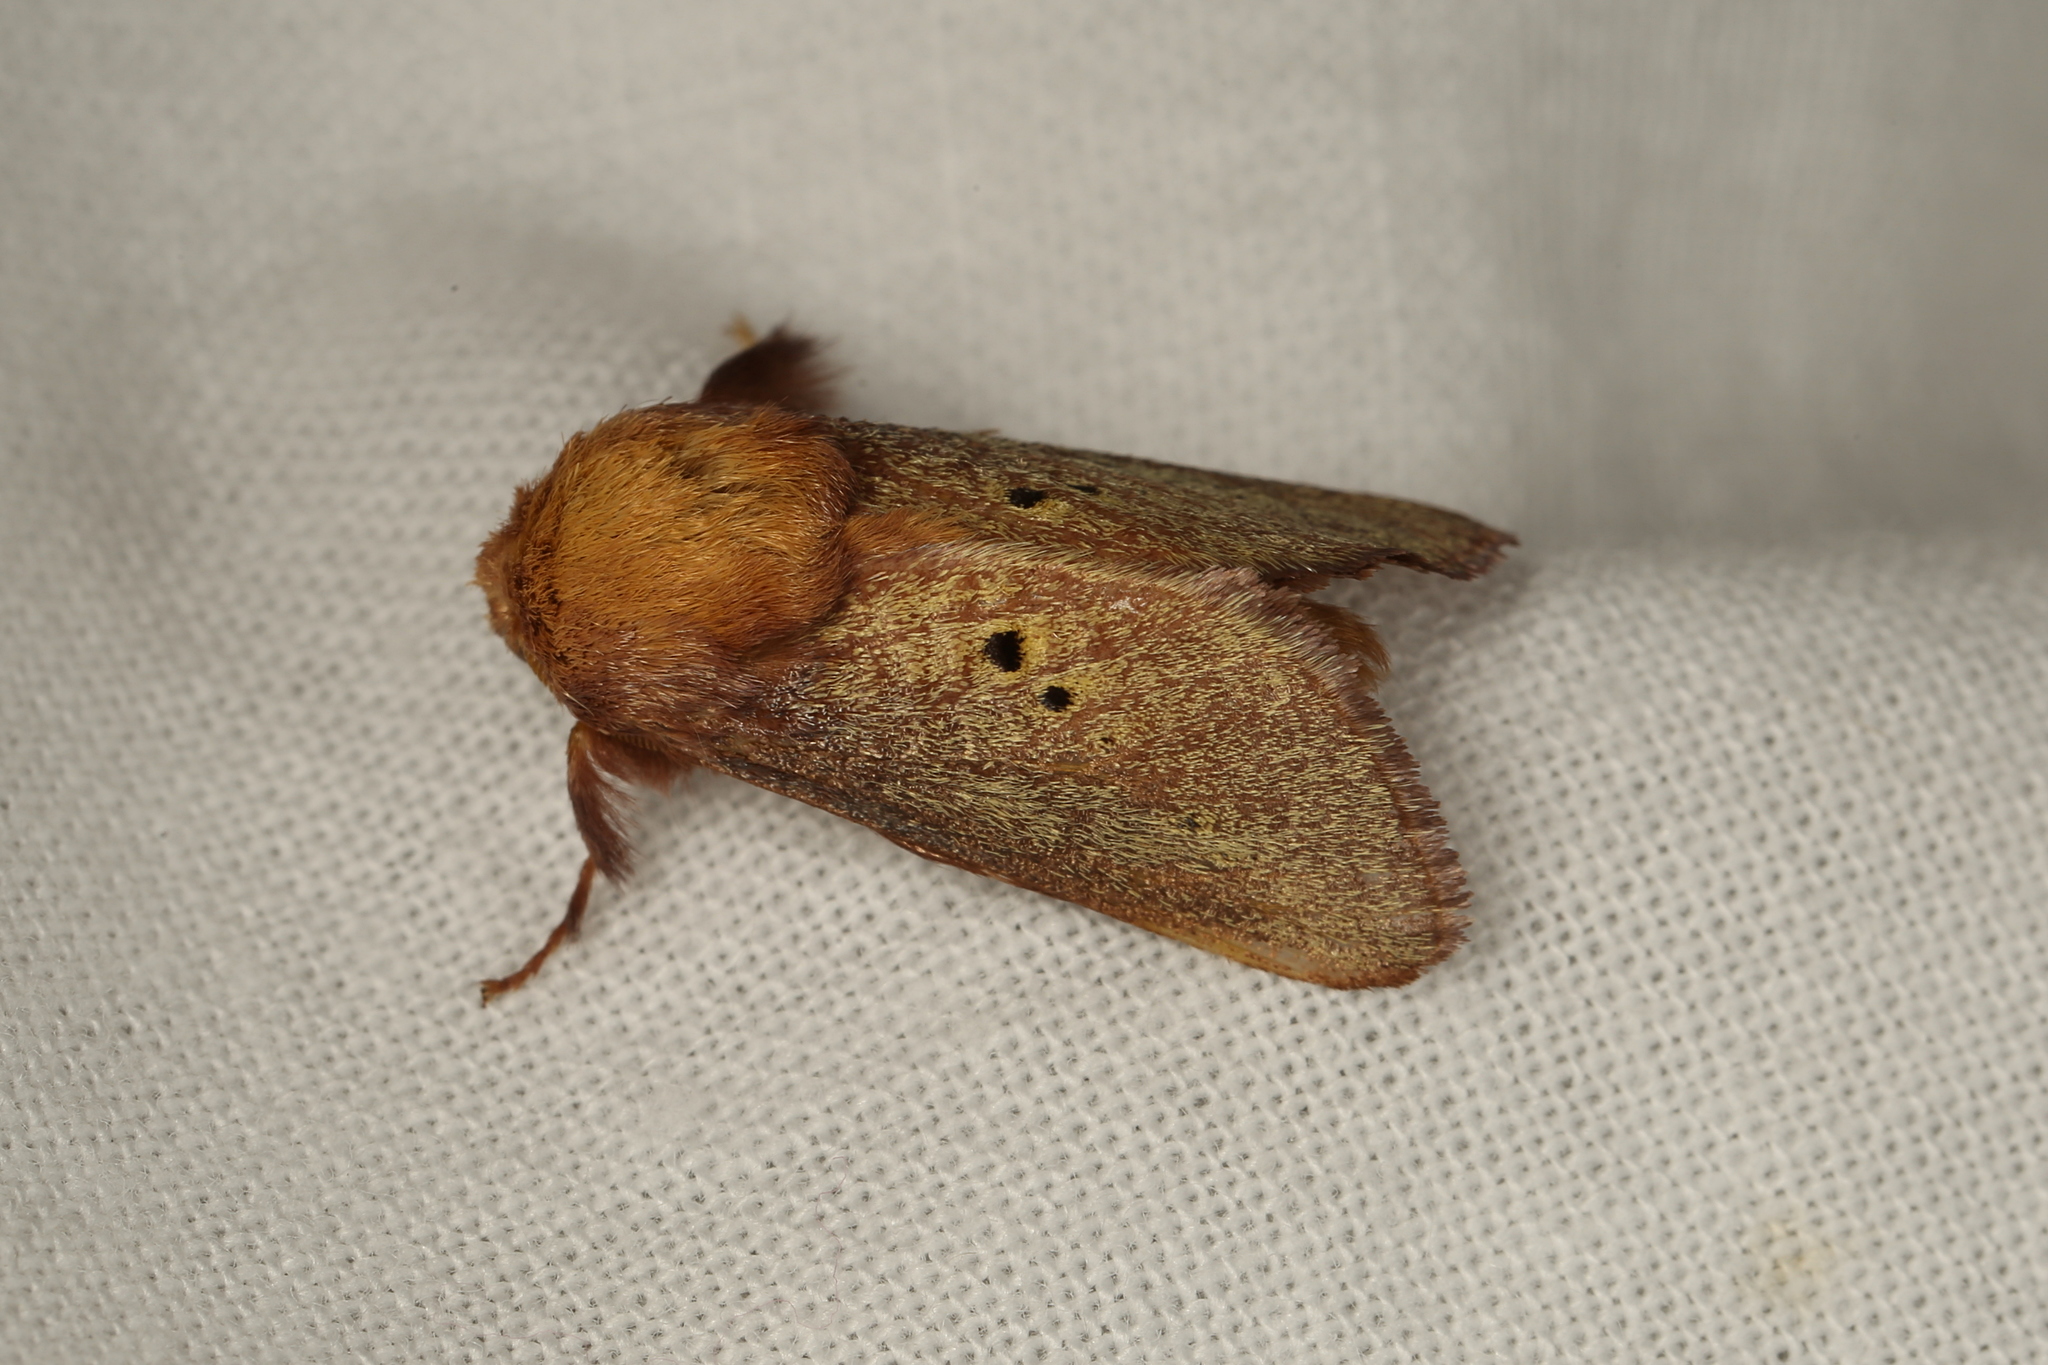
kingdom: Animalia
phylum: Arthropoda
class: Insecta
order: Lepidoptera
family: Limacodidae
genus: Doratifera
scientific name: Doratifera quadriguttata
